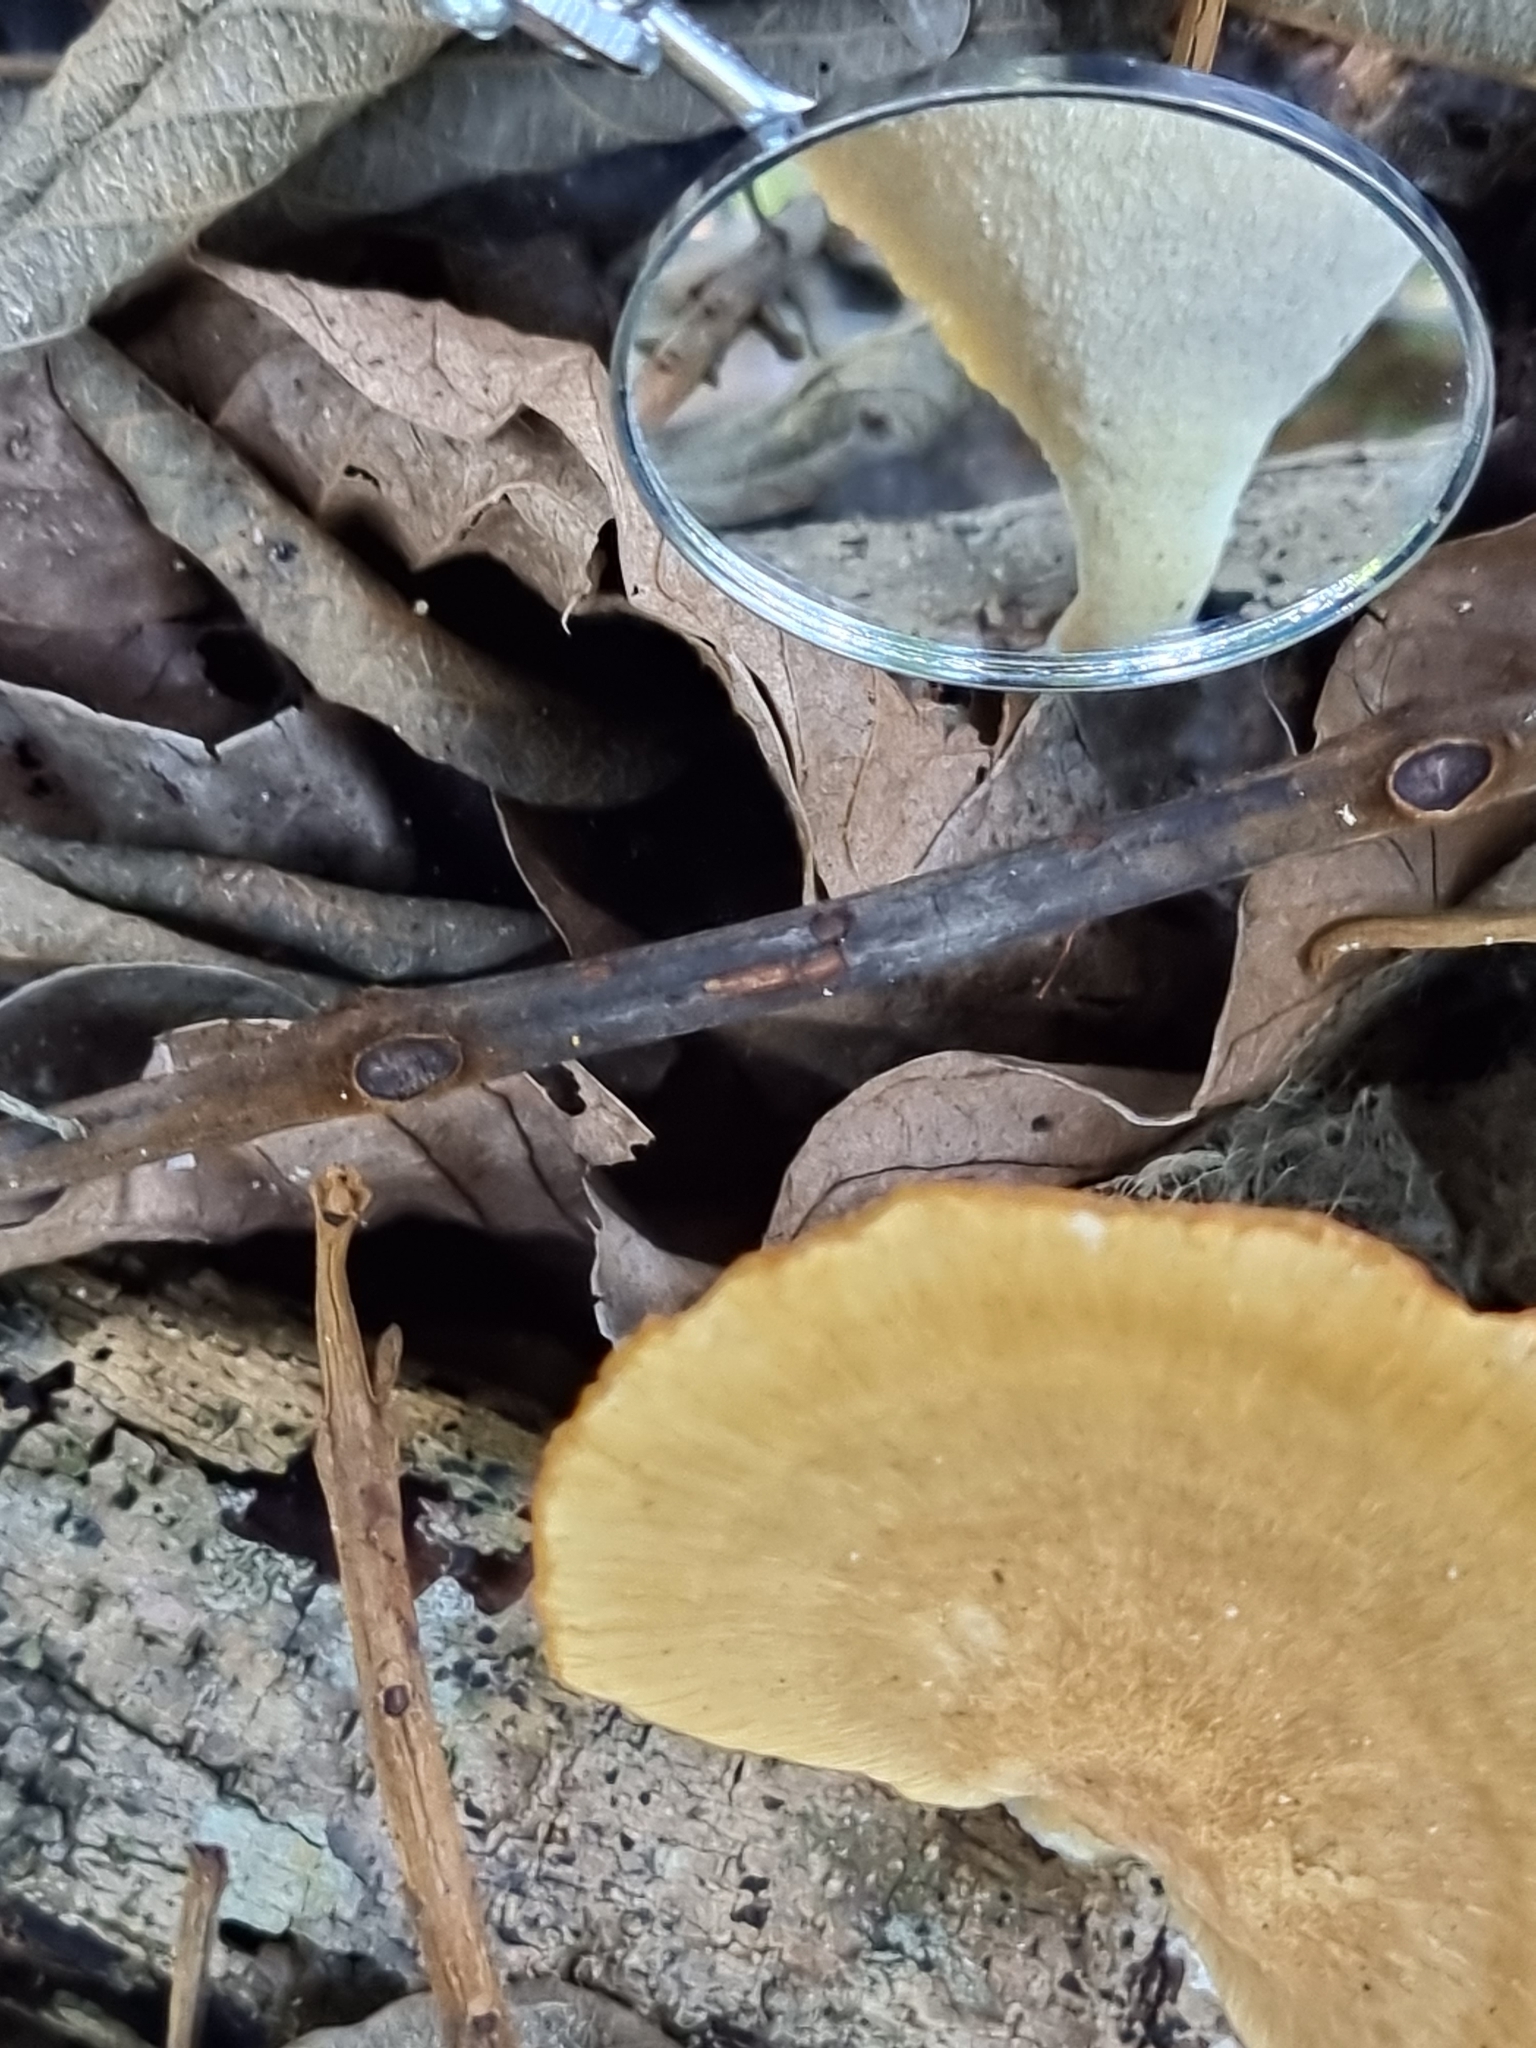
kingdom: Fungi
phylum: Basidiomycota
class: Agaricomycetes
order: Polyporales
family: Polyporaceae
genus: Favolus
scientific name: Favolus fuscolineatus
